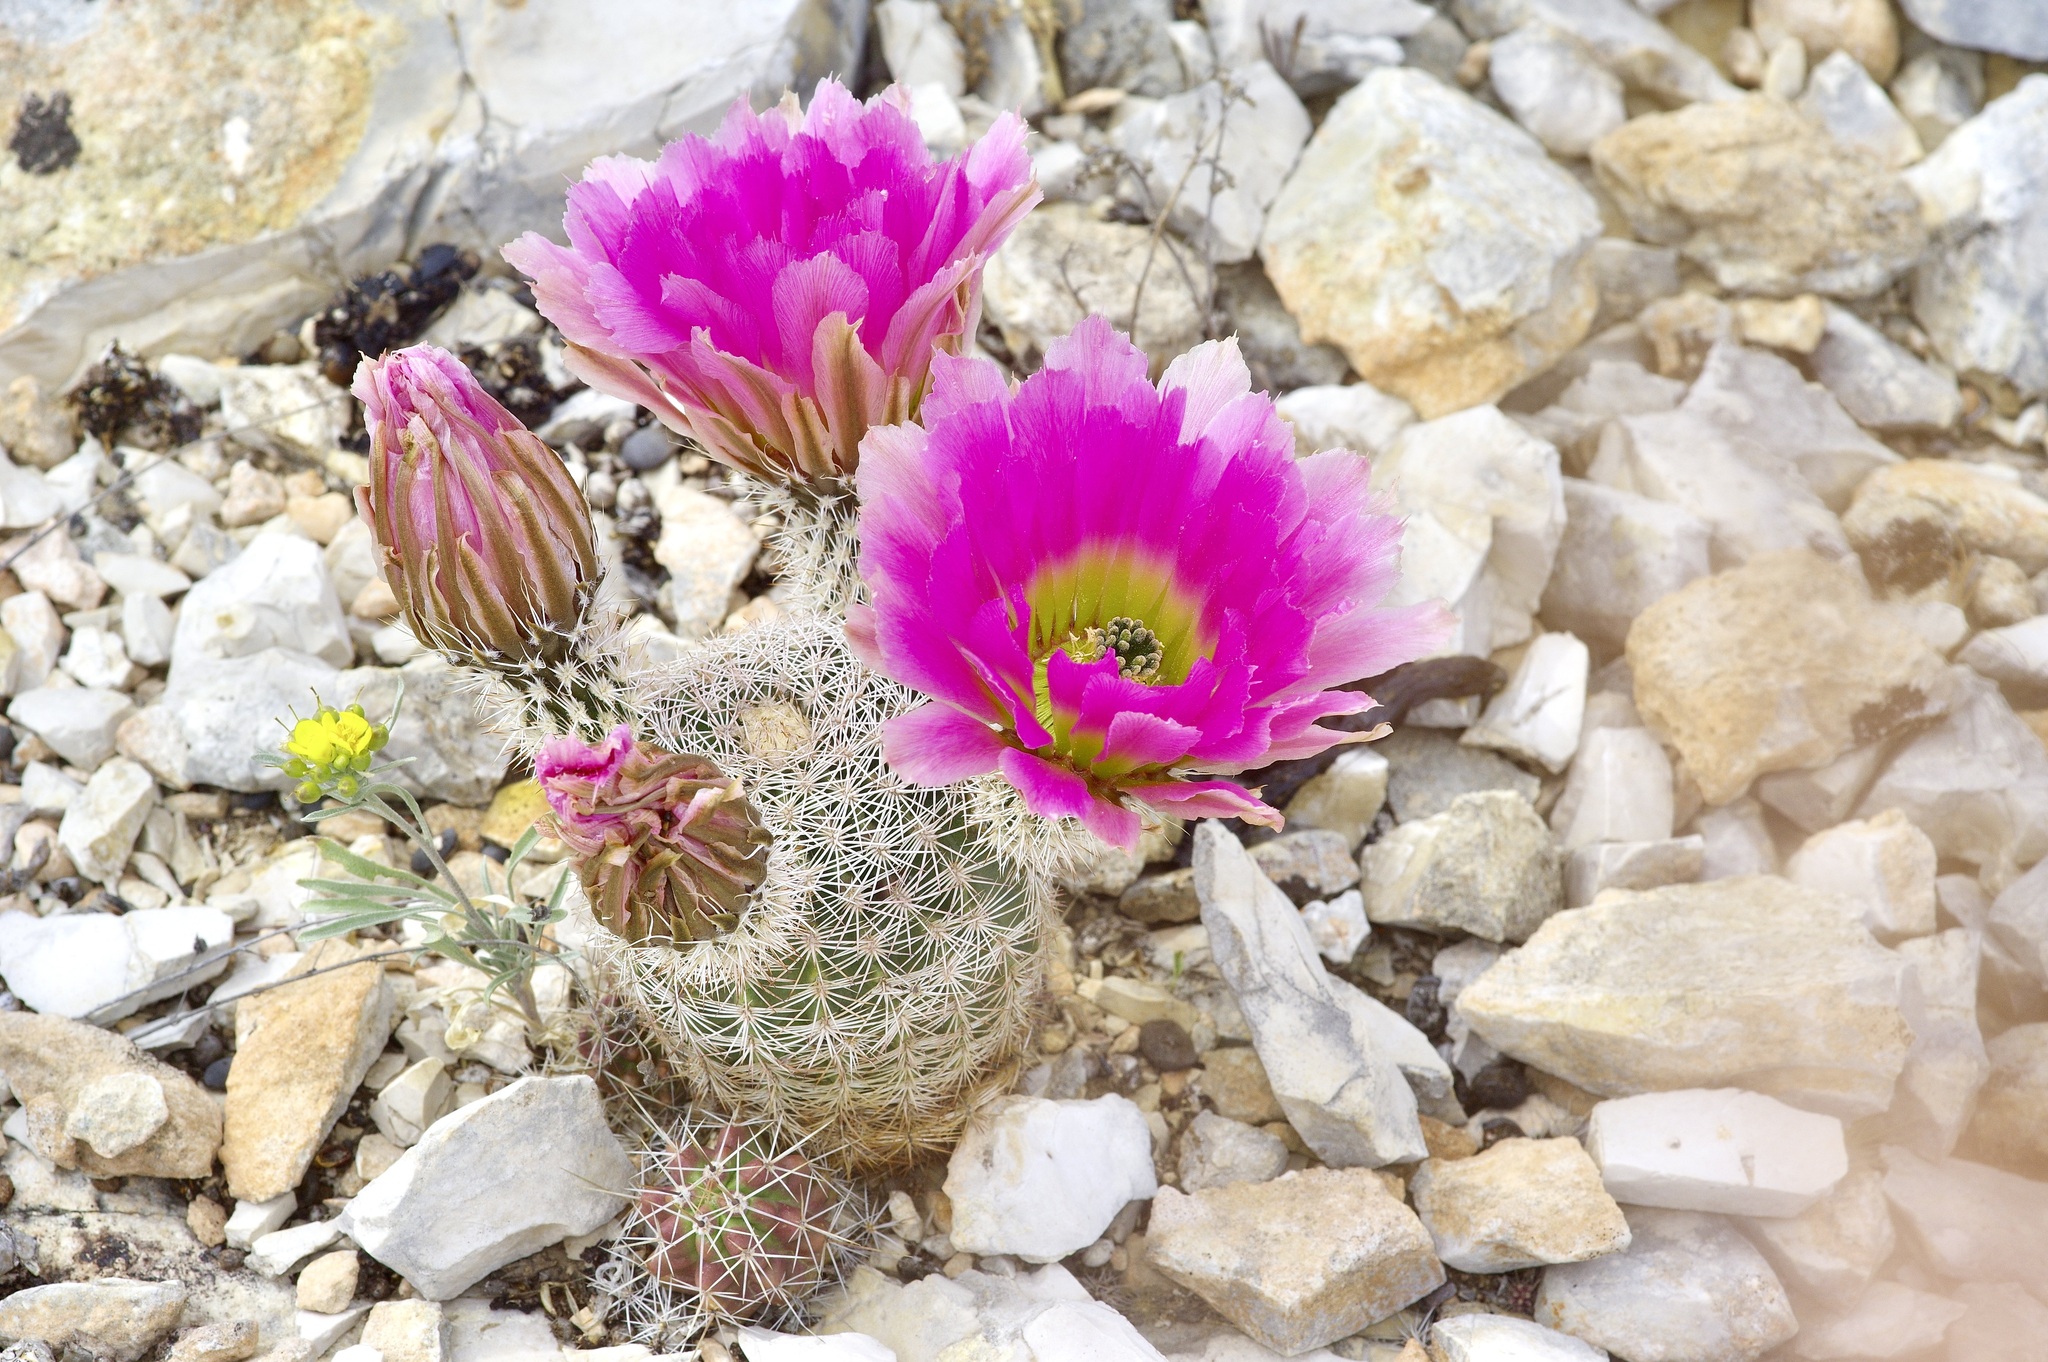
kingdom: Plantae
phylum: Tracheophyta
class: Magnoliopsida
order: Caryophyllales
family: Cactaceae
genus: Echinocereus
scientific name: Echinocereus pectinatus
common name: Rainbow cactus
